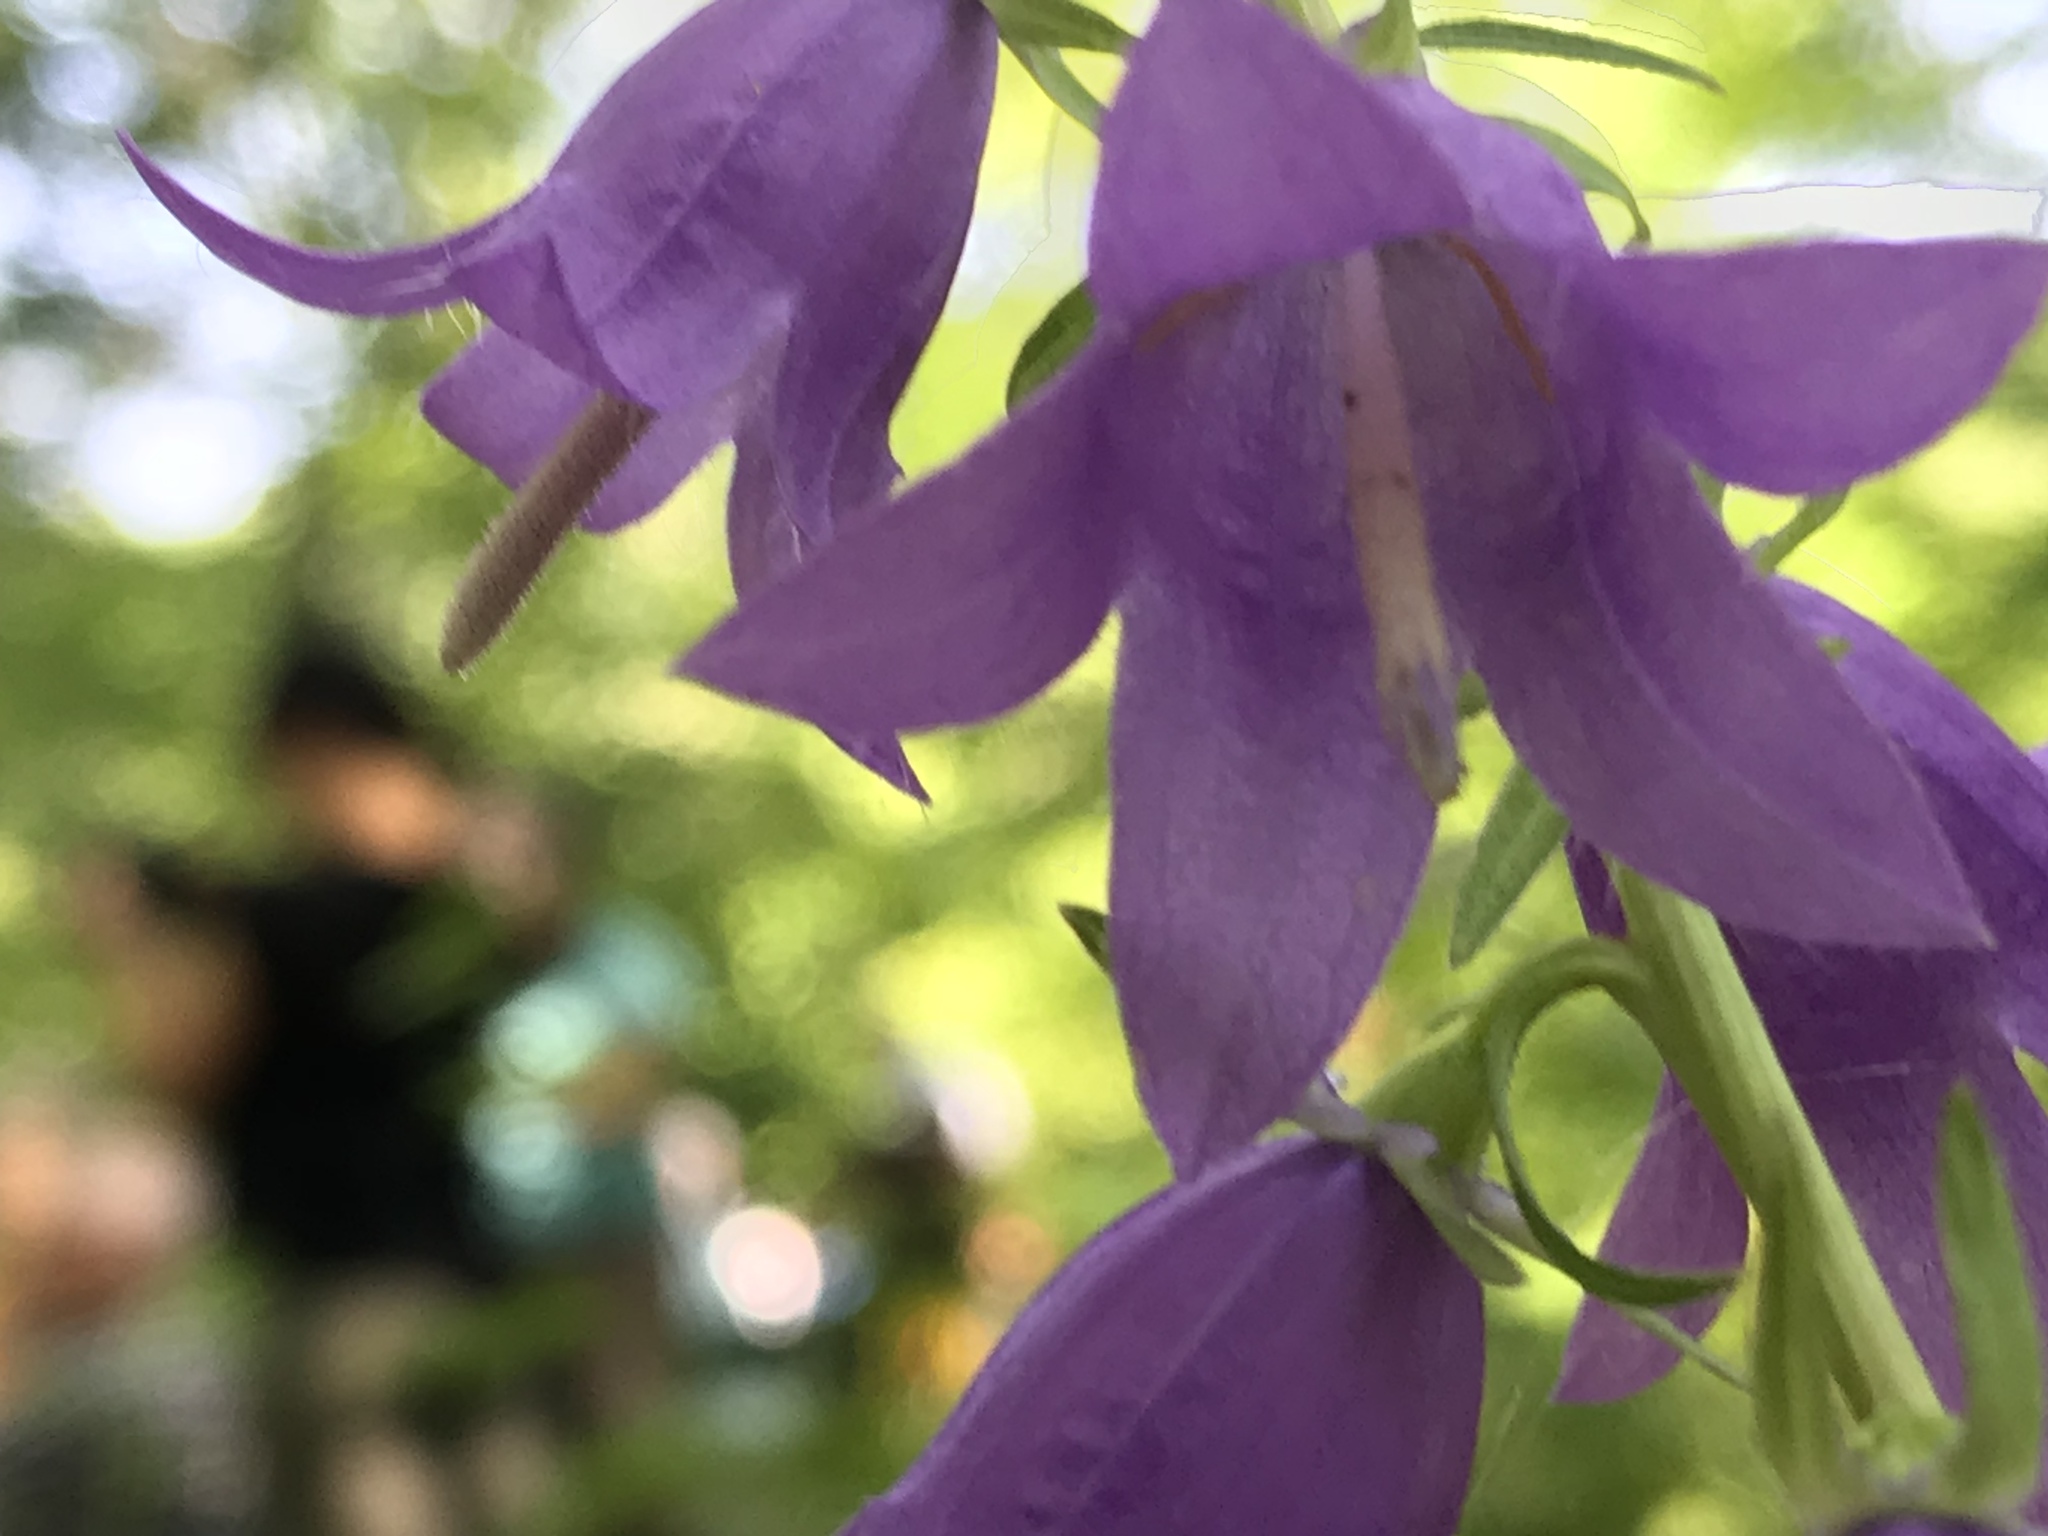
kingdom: Plantae
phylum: Tracheophyta
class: Magnoliopsida
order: Asterales
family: Campanulaceae
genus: Campanula
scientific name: Campanula rapunculoides
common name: Creeping bellflower
